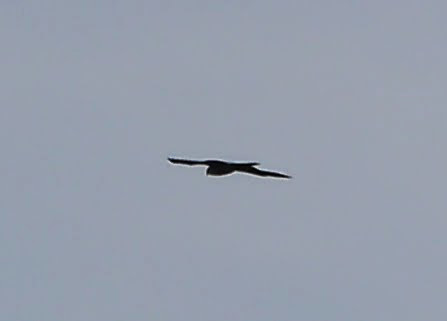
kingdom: Animalia
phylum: Chordata
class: Aves
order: Accipitriformes
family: Accipitridae
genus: Ictinia
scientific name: Ictinia mississippiensis
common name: Mississippi kite
